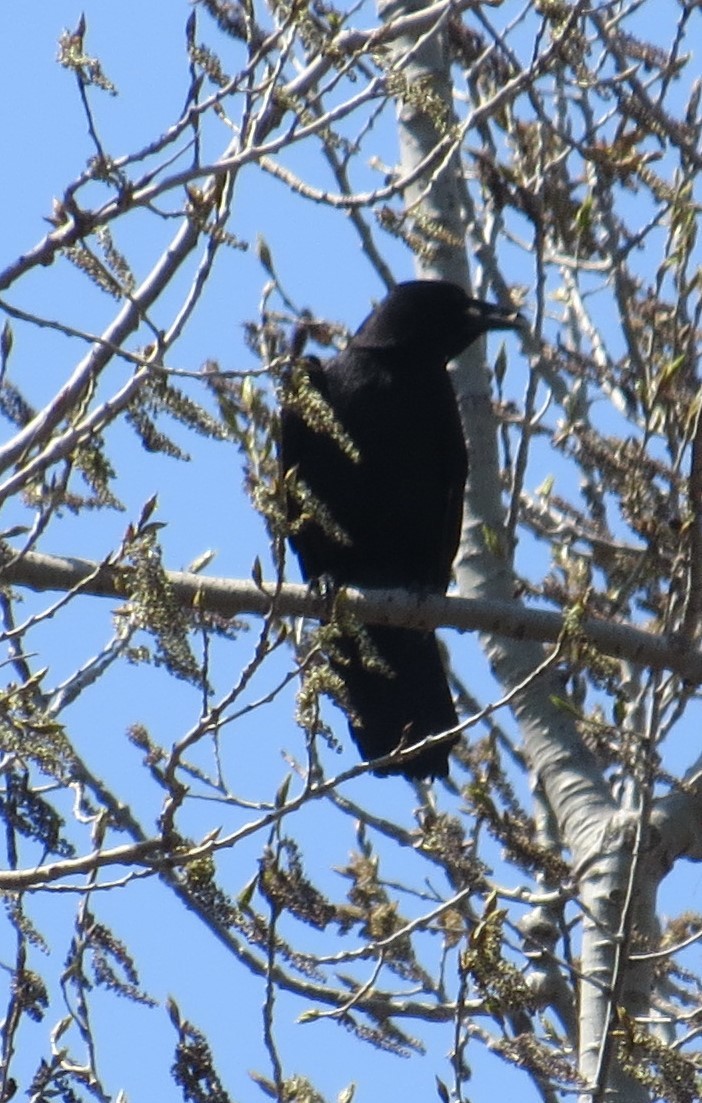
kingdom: Animalia
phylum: Chordata
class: Aves
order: Passeriformes
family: Corvidae
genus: Corvus
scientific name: Corvus brachyrhynchos
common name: American crow
